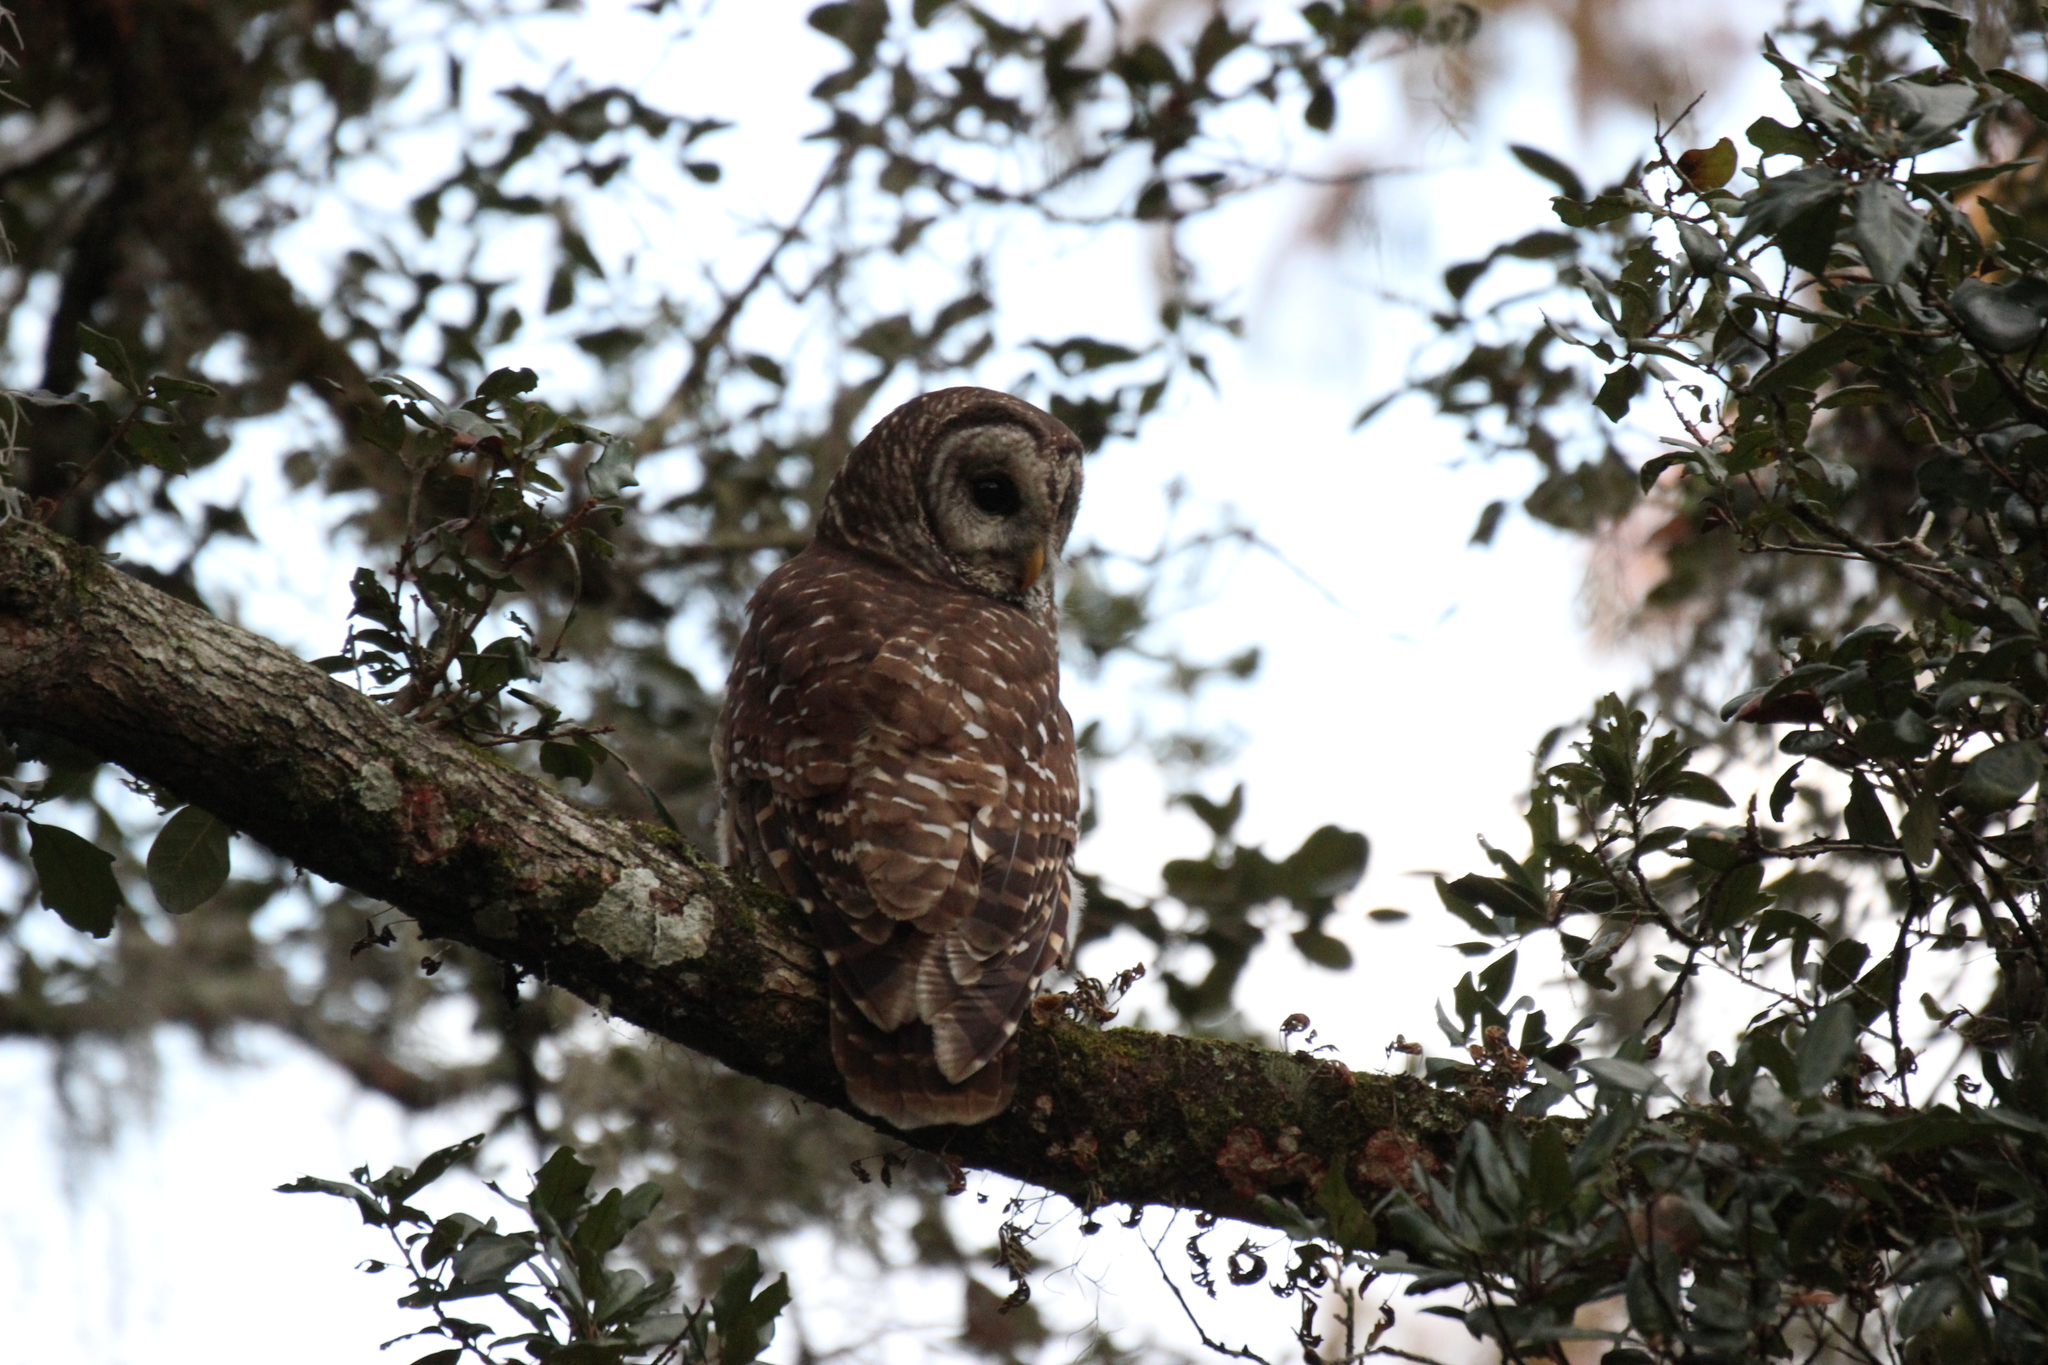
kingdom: Animalia
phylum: Chordata
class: Aves
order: Strigiformes
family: Strigidae
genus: Strix
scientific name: Strix varia
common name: Barred owl
